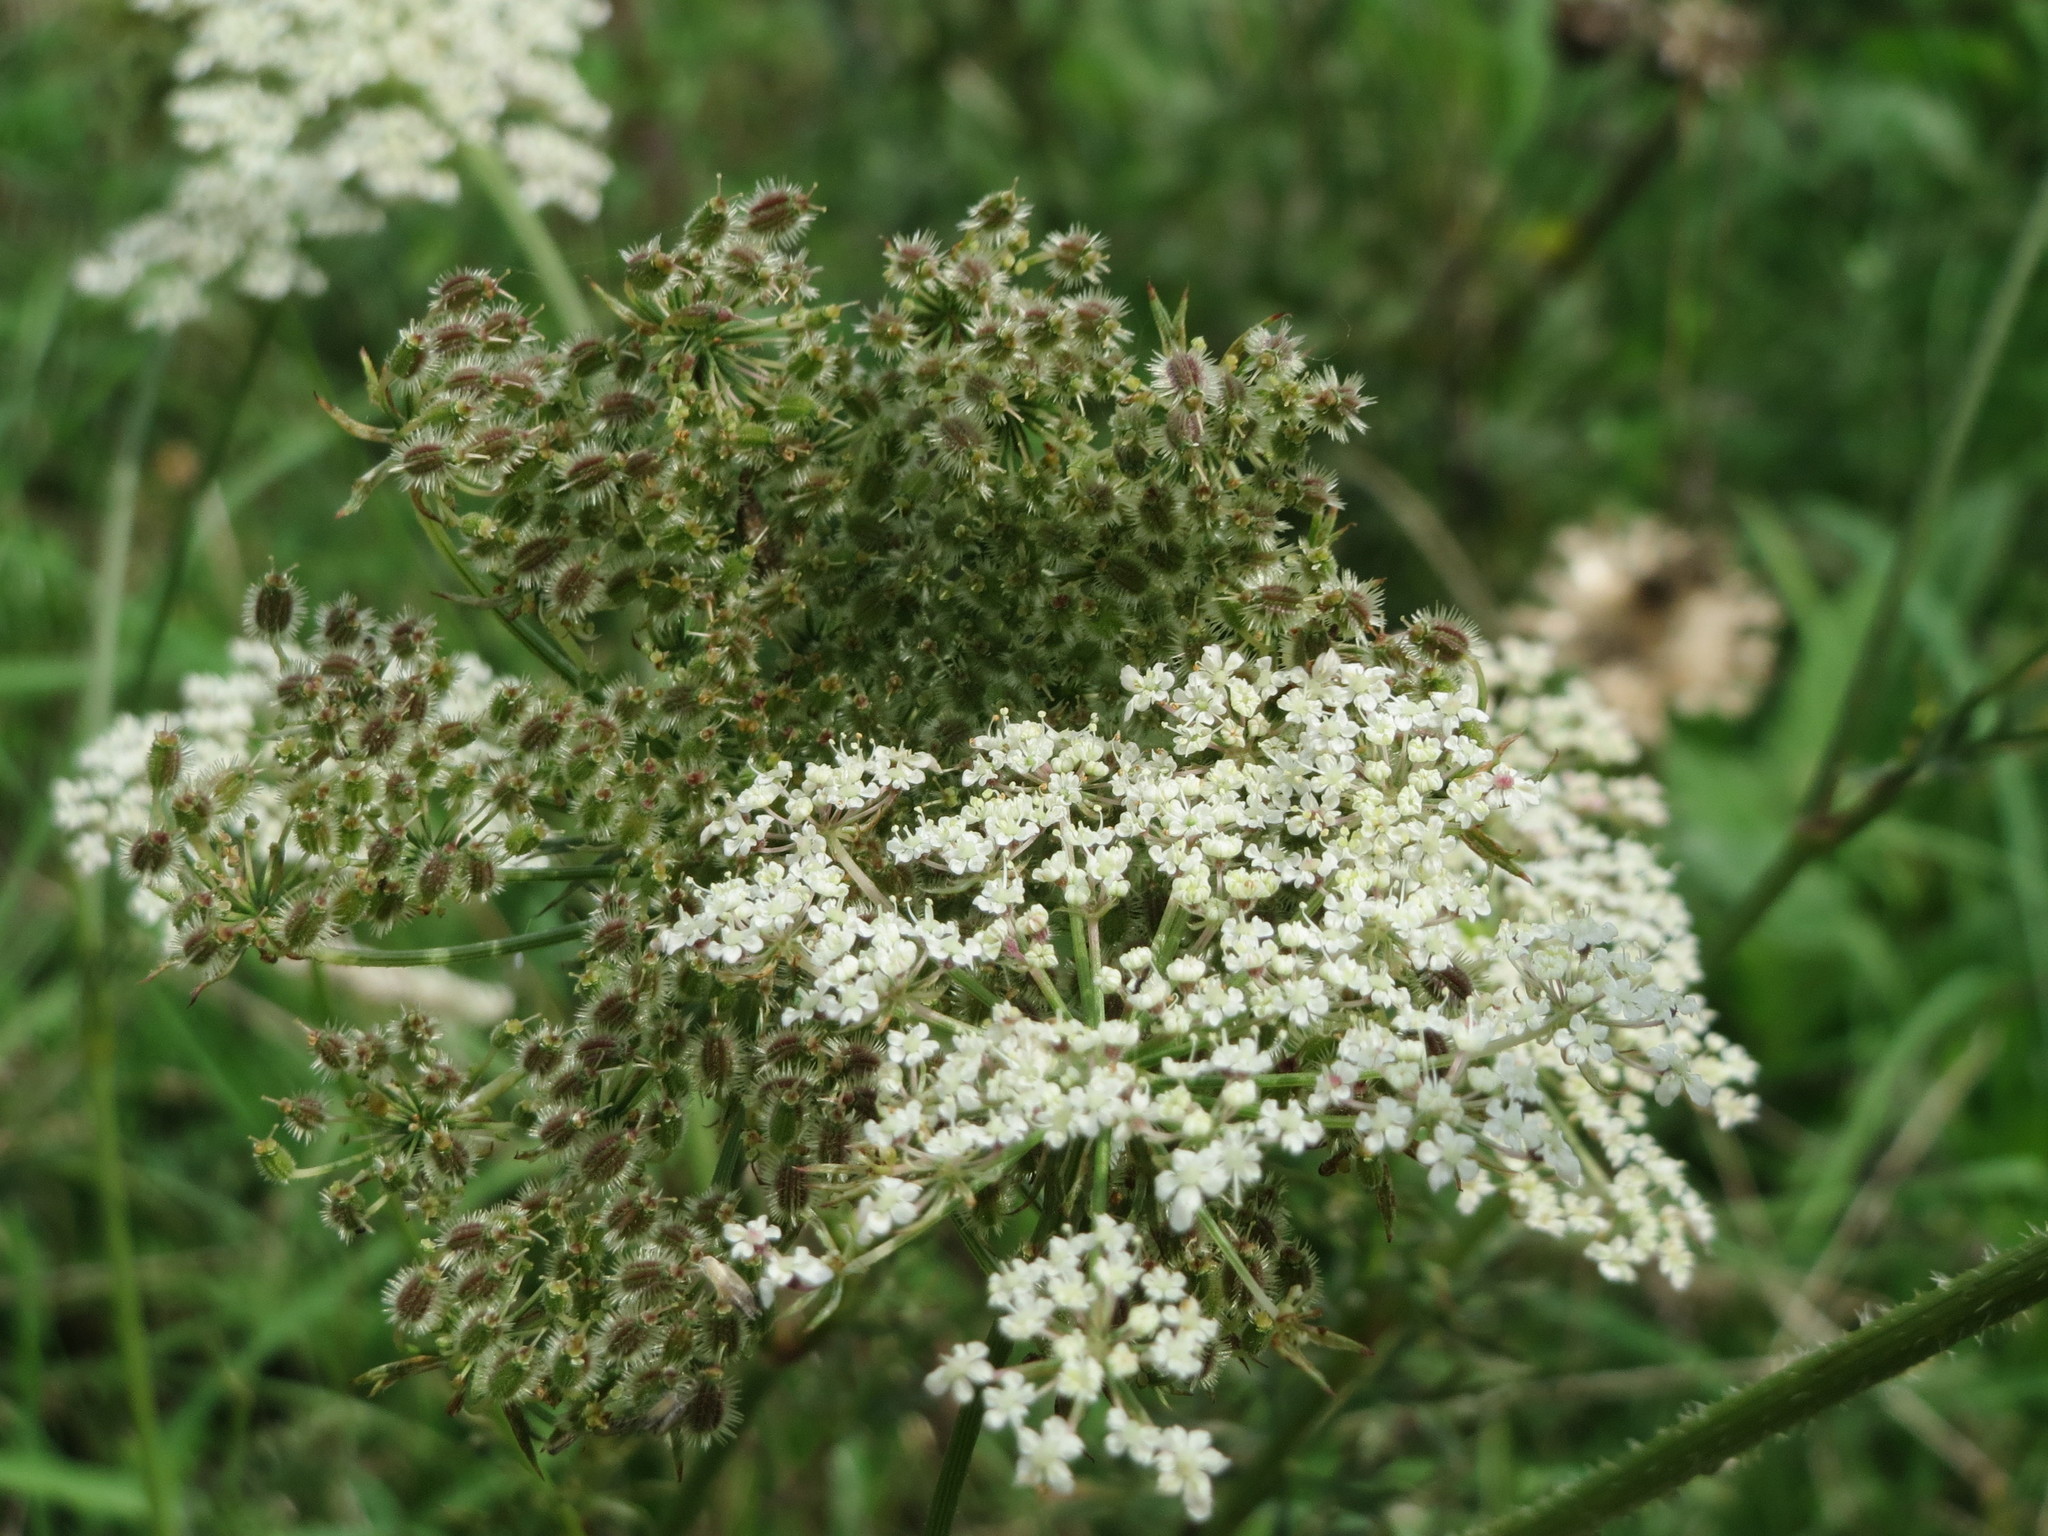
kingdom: Plantae
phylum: Tracheophyta
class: Magnoliopsida
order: Apiales
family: Apiaceae
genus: Daucus
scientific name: Daucus carota
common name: Wild carrot
